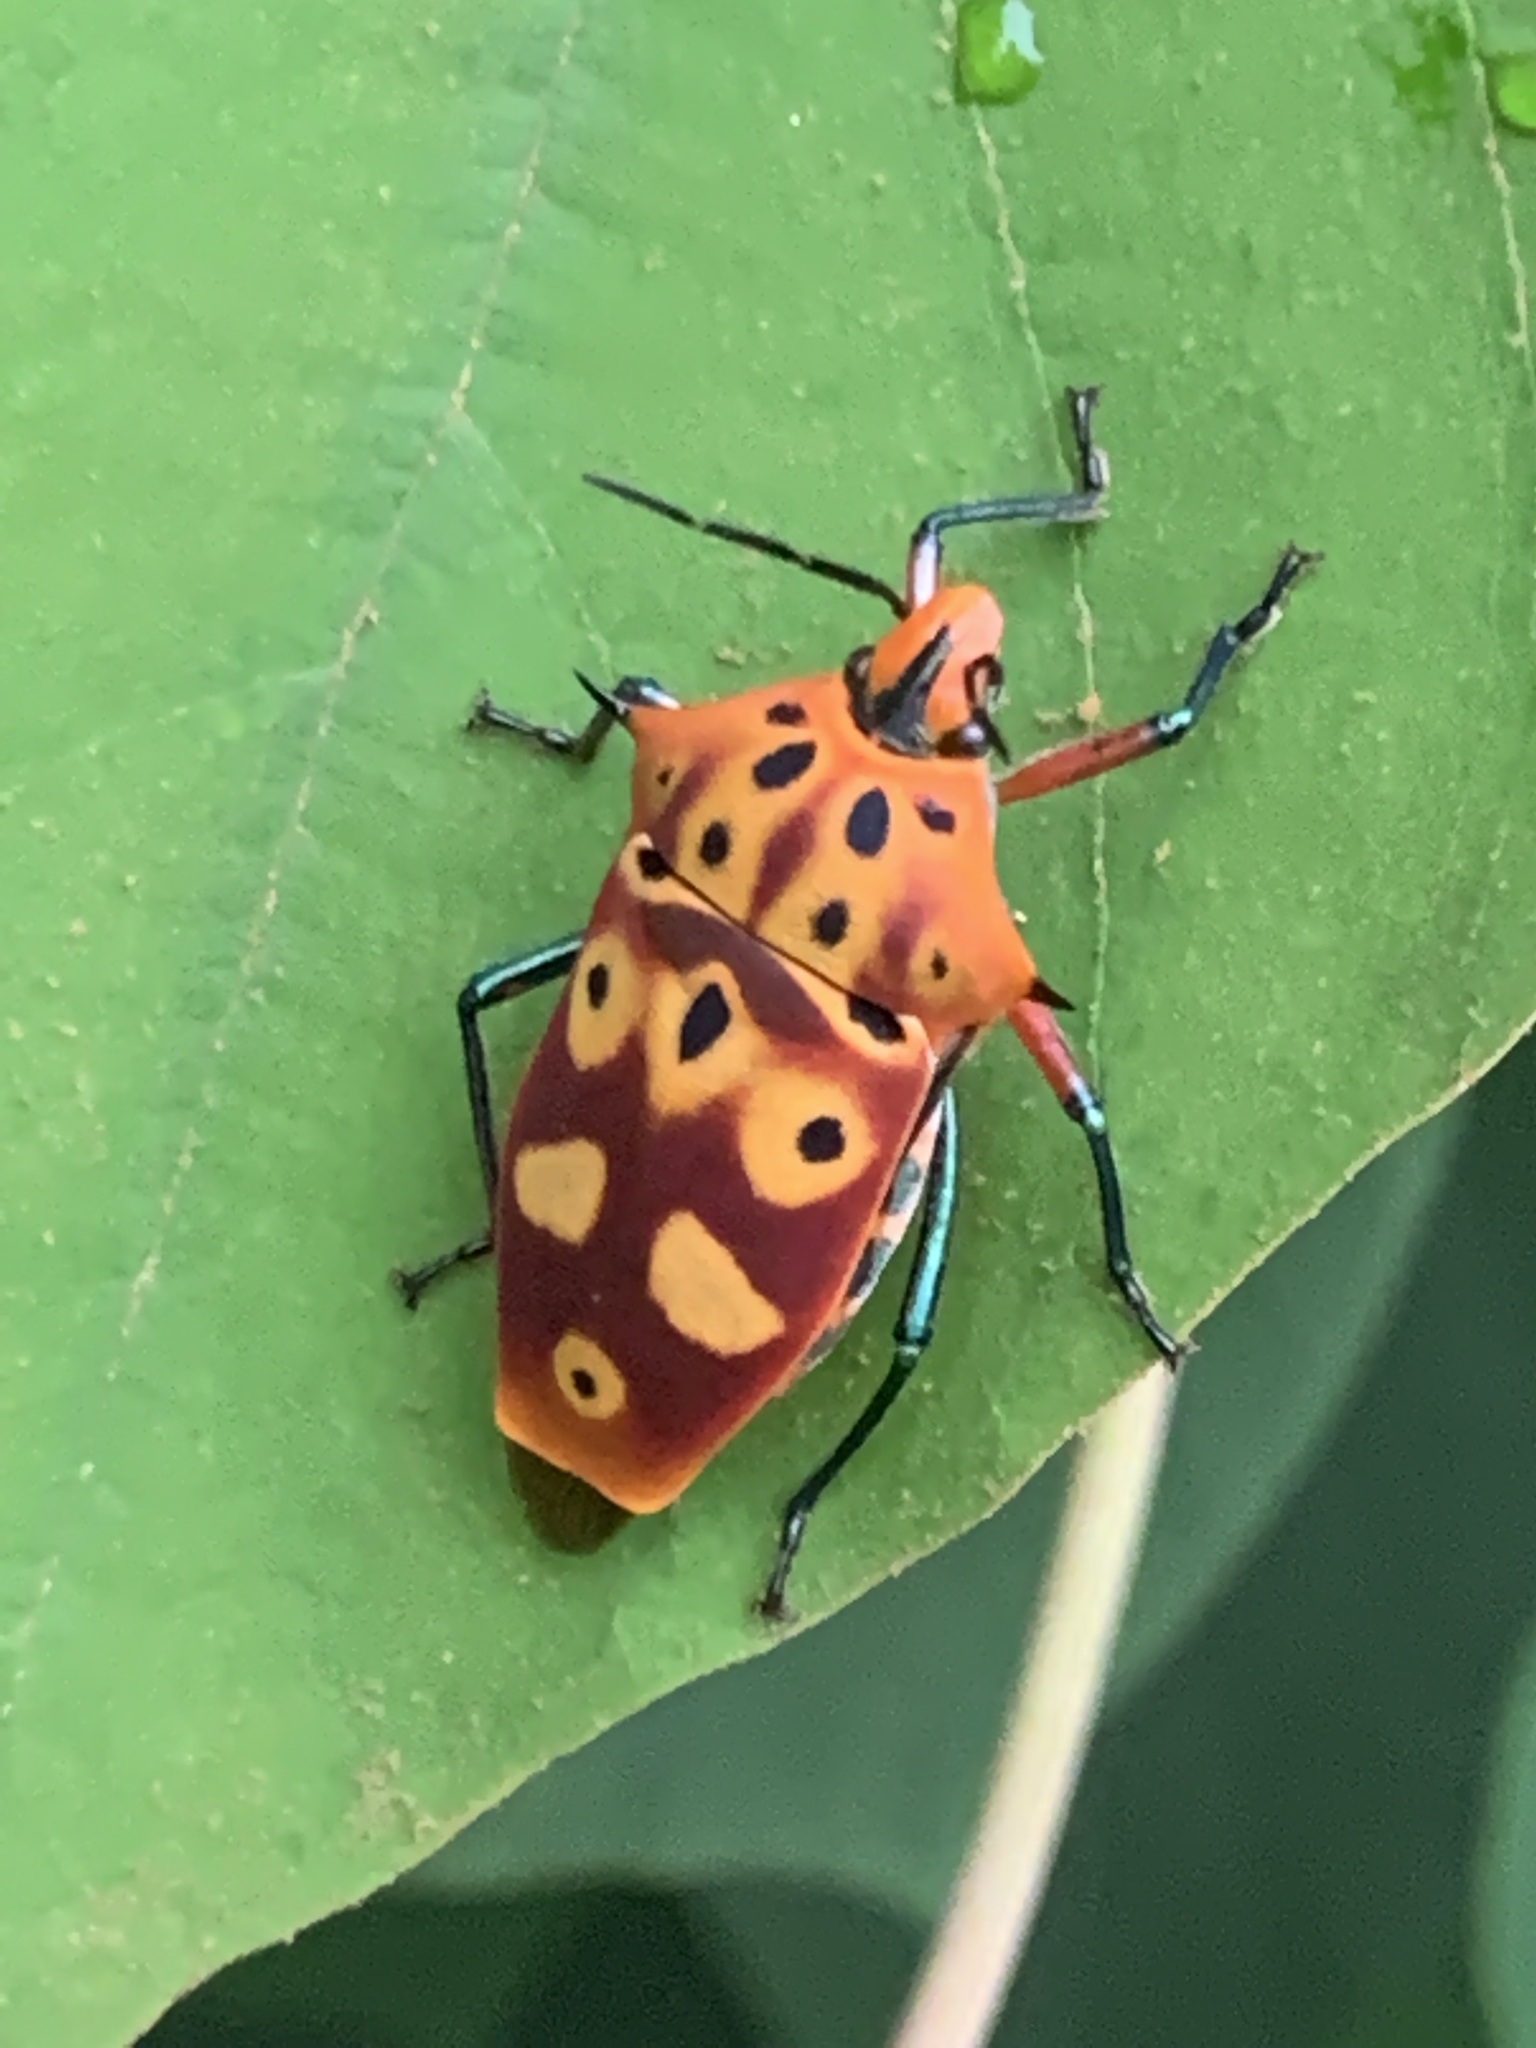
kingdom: Animalia
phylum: Arthropoda
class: Insecta
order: Hemiptera
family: Scutelleridae
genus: Cantao
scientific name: Cantao ocellatus
